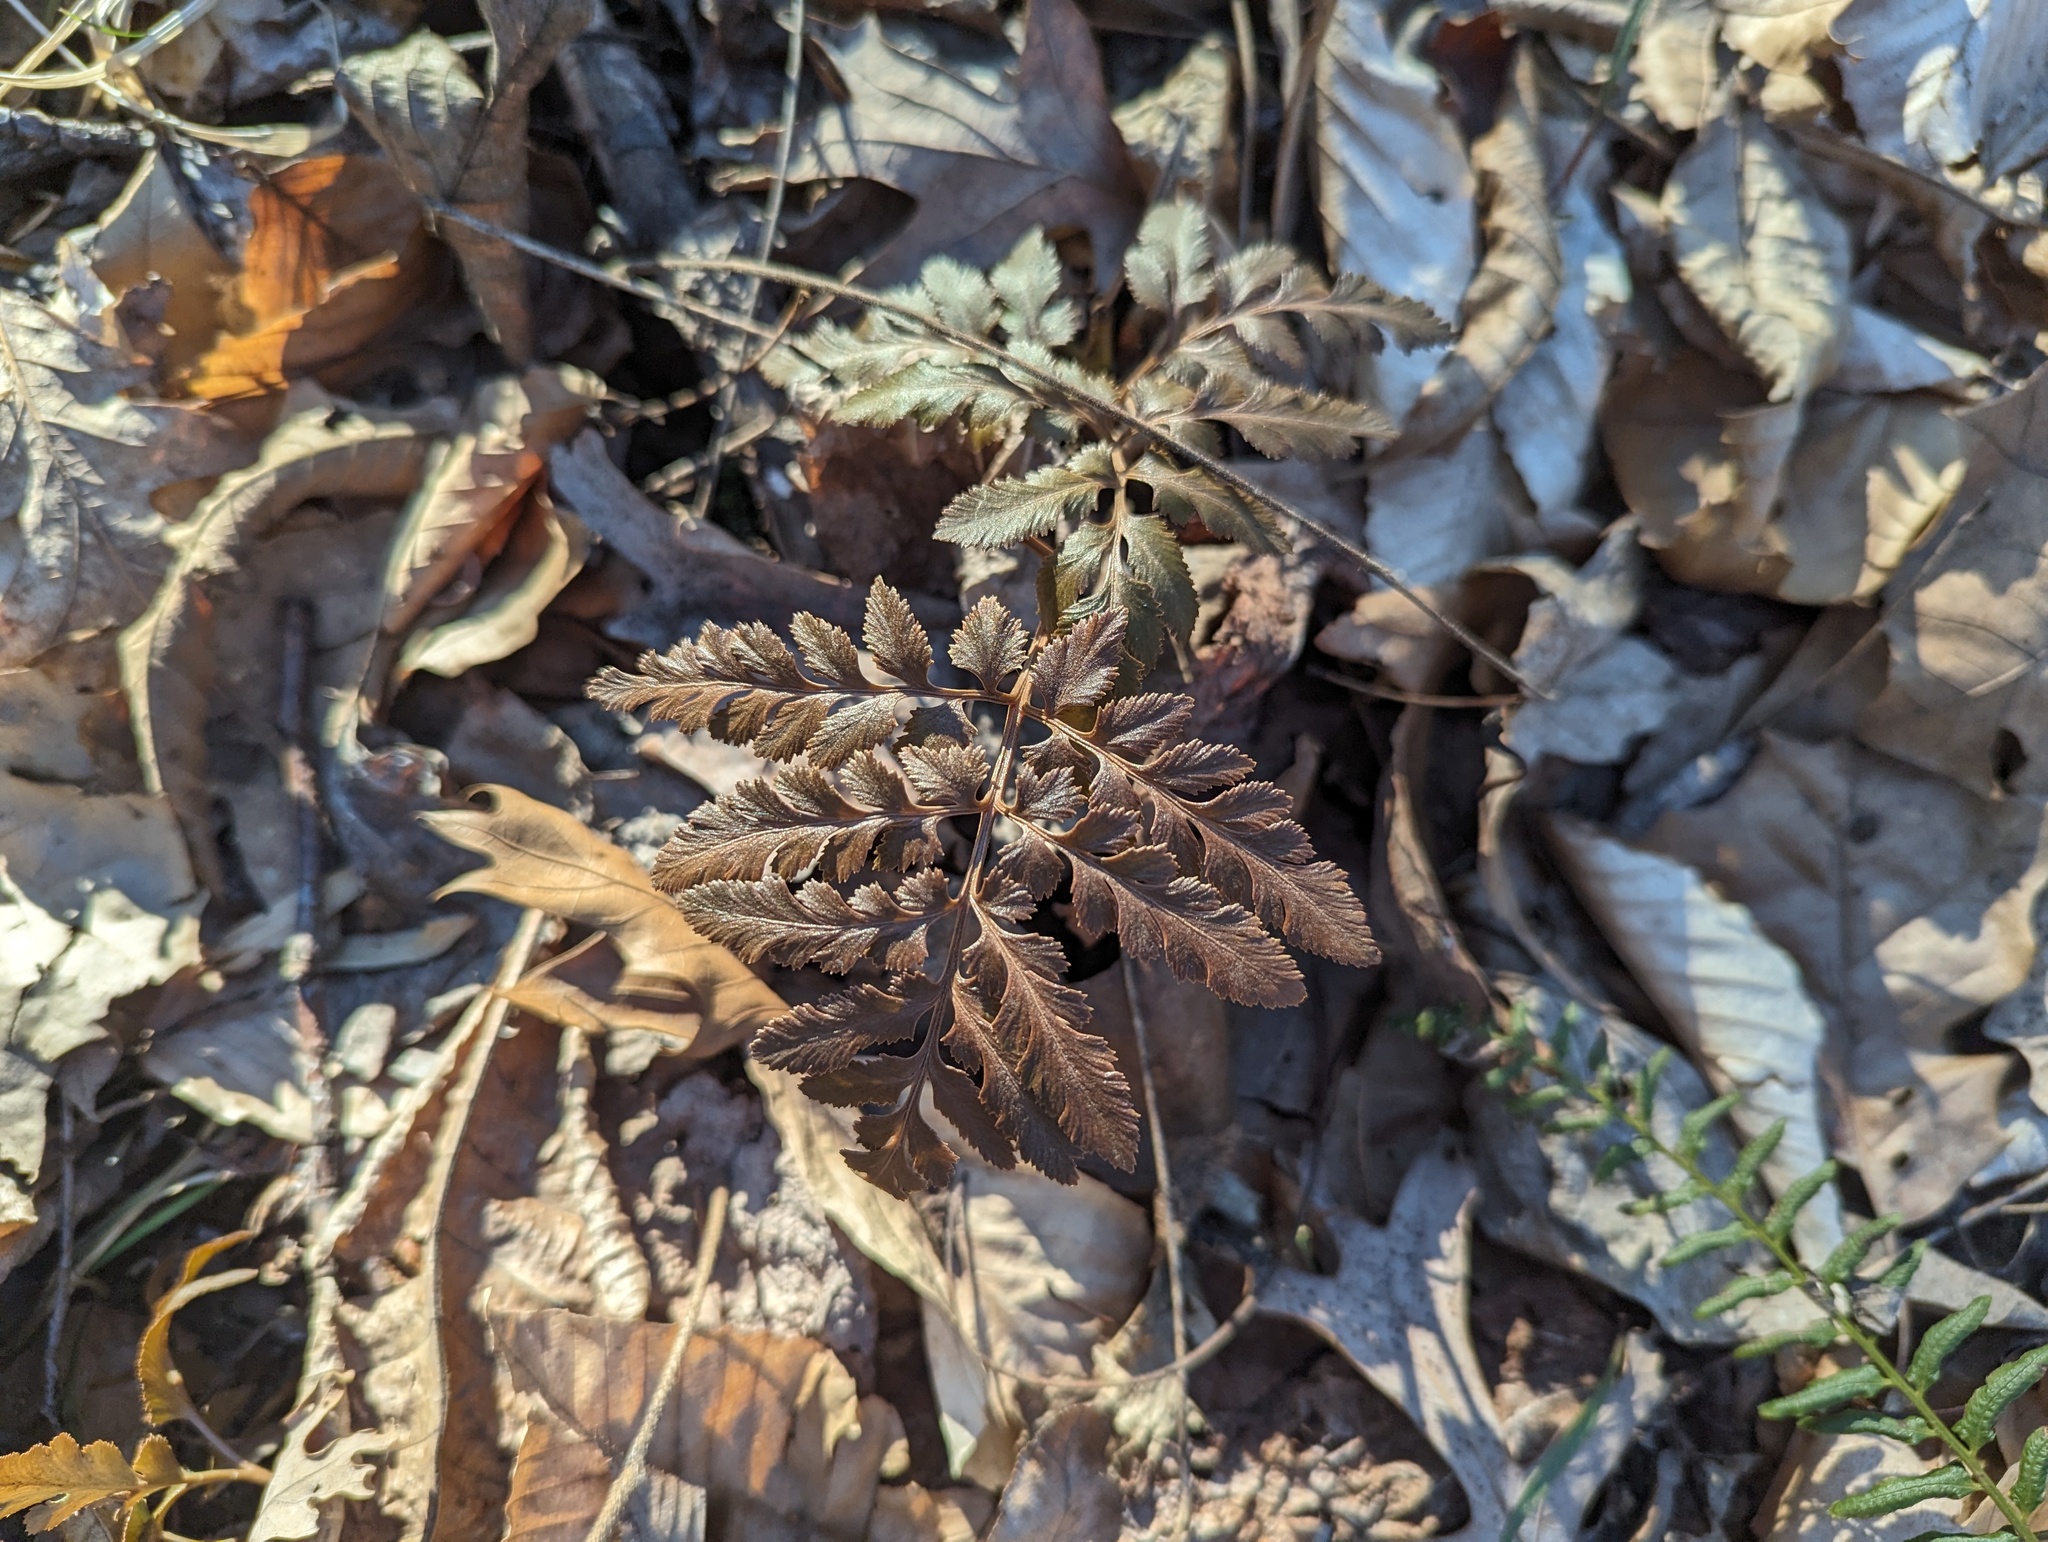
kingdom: Plantae
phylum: Tracheophyta
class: Polypodiopsida
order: Ophioglossales
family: Ophioglossaceae
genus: Sceptridium
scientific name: Sceptridium dissectum
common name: Cut-leaved grapefern
